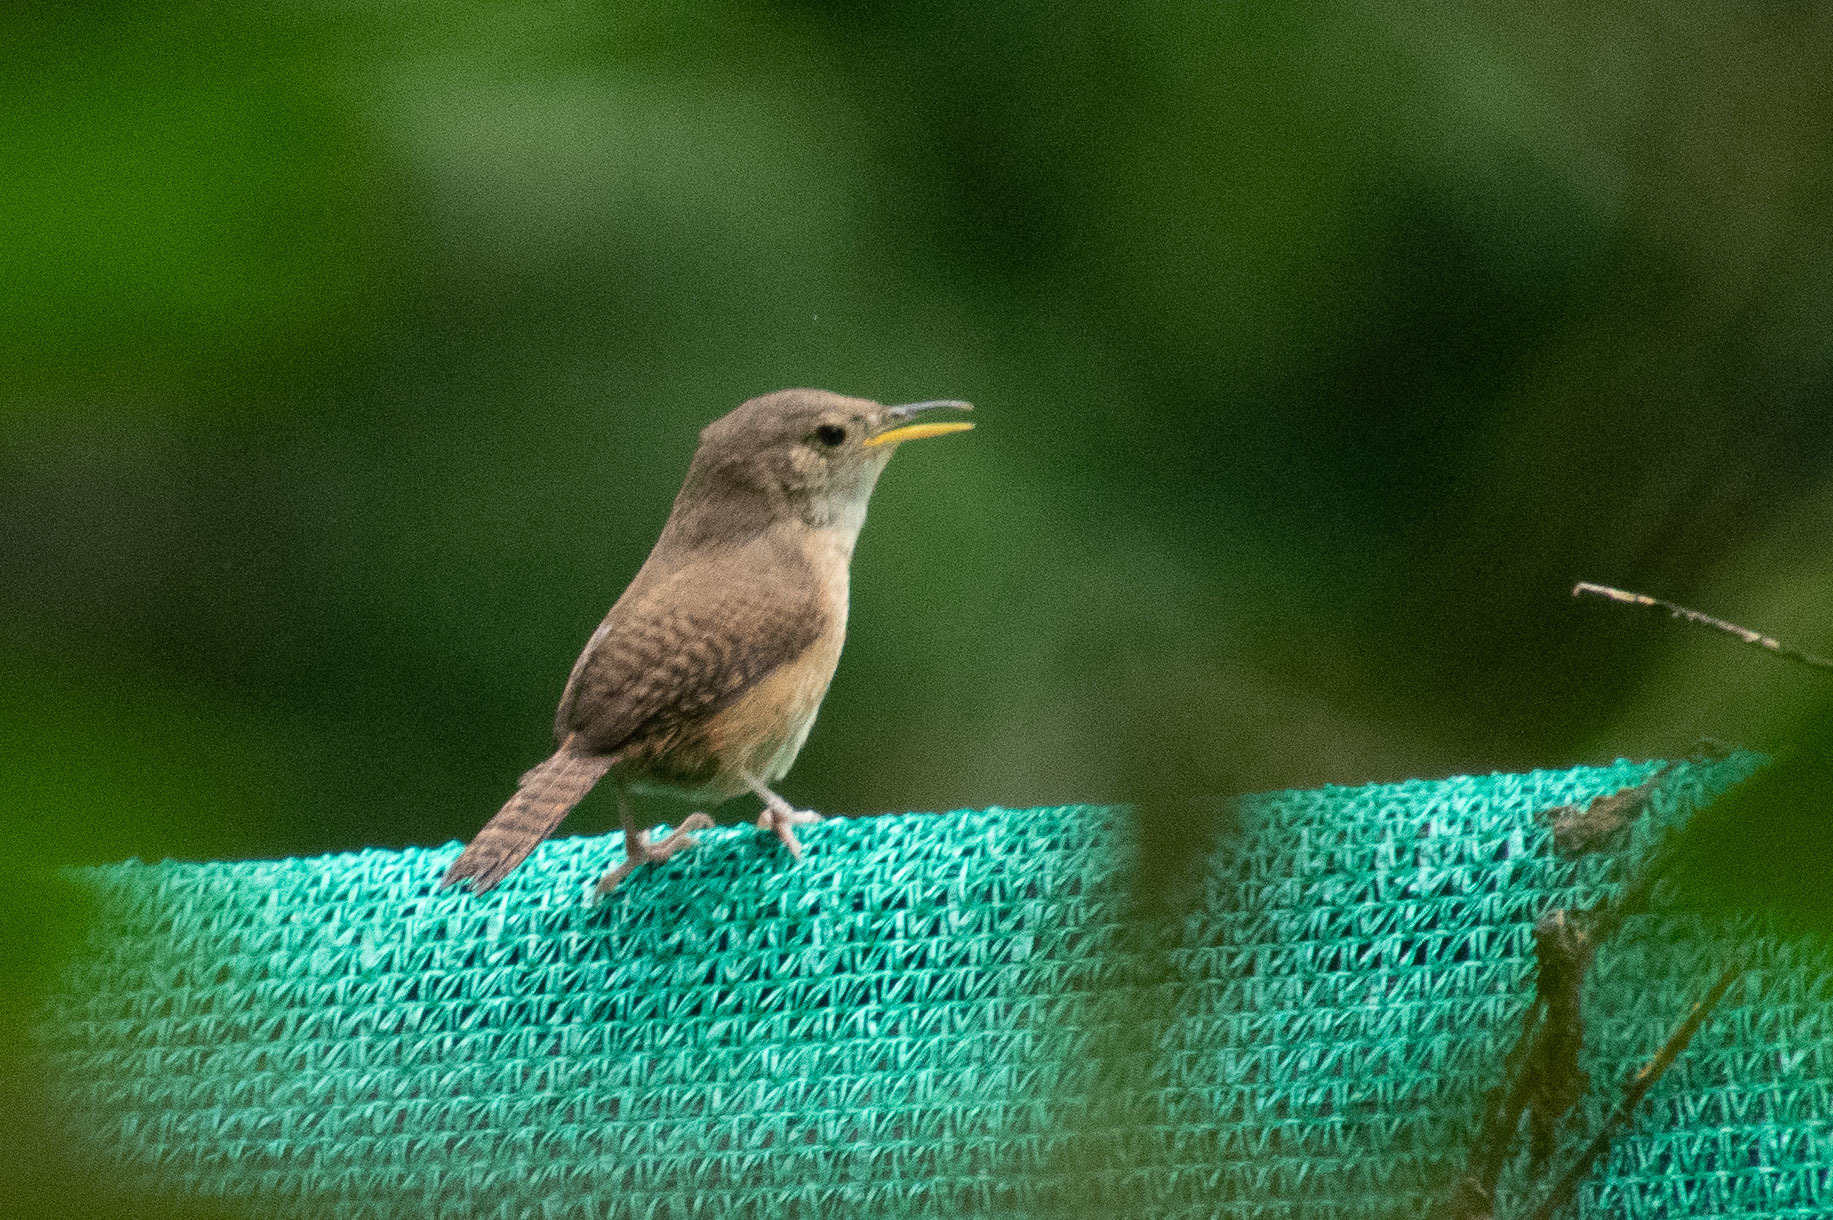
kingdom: Animalia
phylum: Chordata
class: Aves
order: Passeriformes
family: Troglodytidae
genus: Troglodytes
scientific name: Troglodytes aedon
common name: House wren
